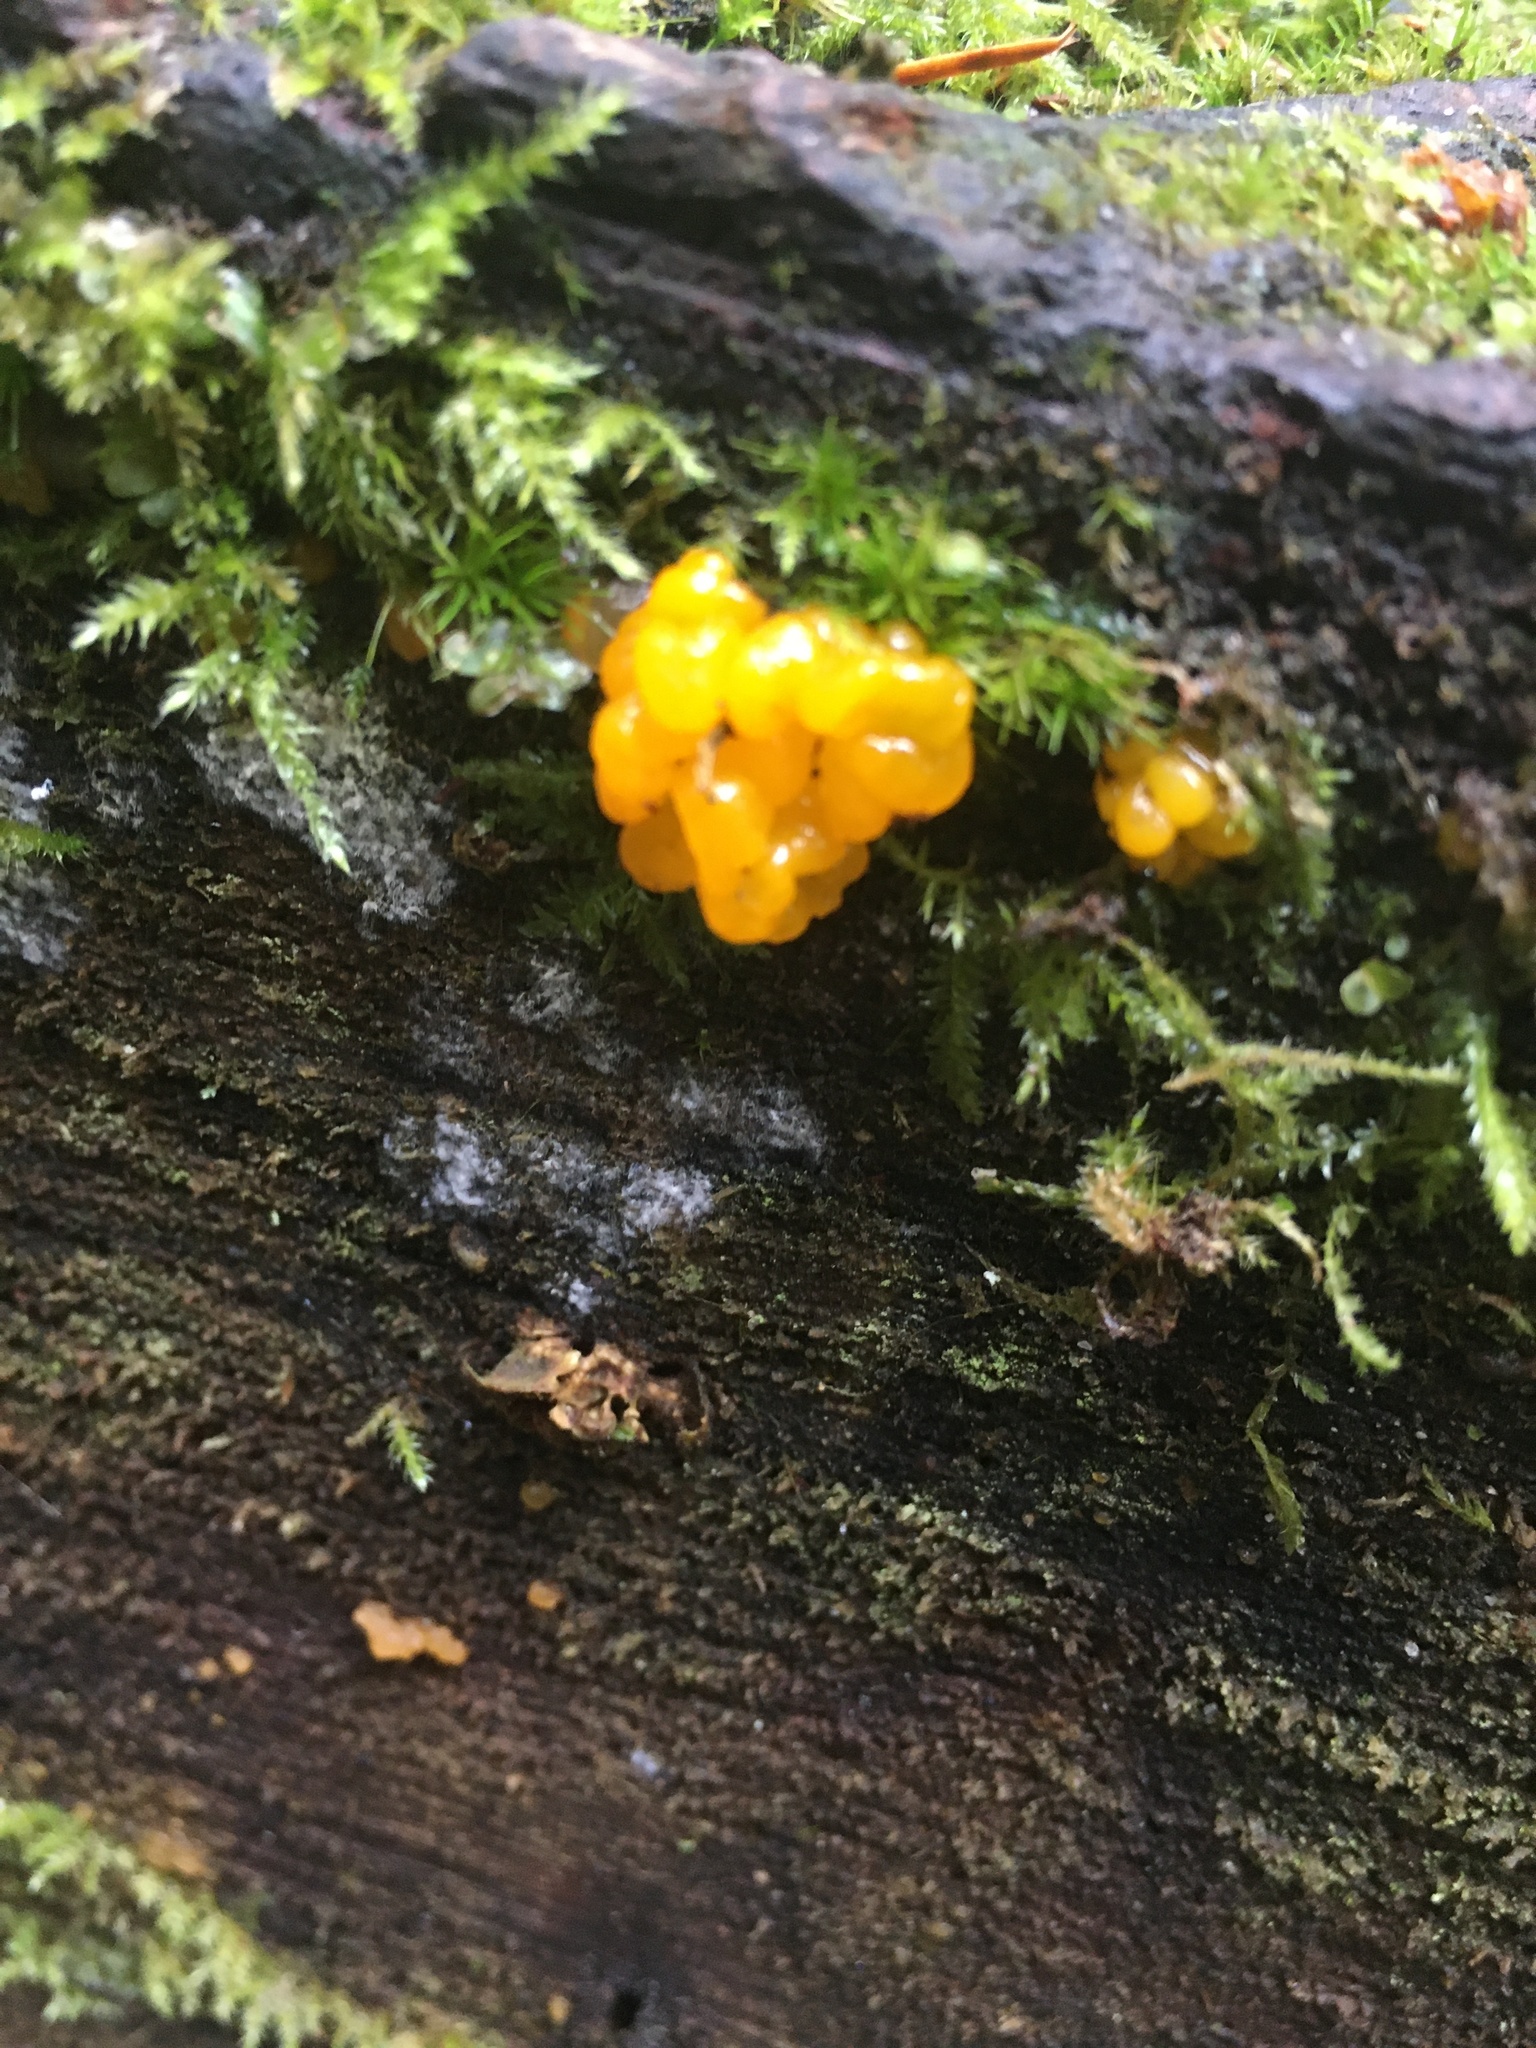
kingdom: Fungi
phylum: Basidiomycota
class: Dacrymycetes
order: Dacrymycetales
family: Dacrymycetaceae
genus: Dacrymyces
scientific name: Dacrymyces chrysospermus
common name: Orange jelly spot
